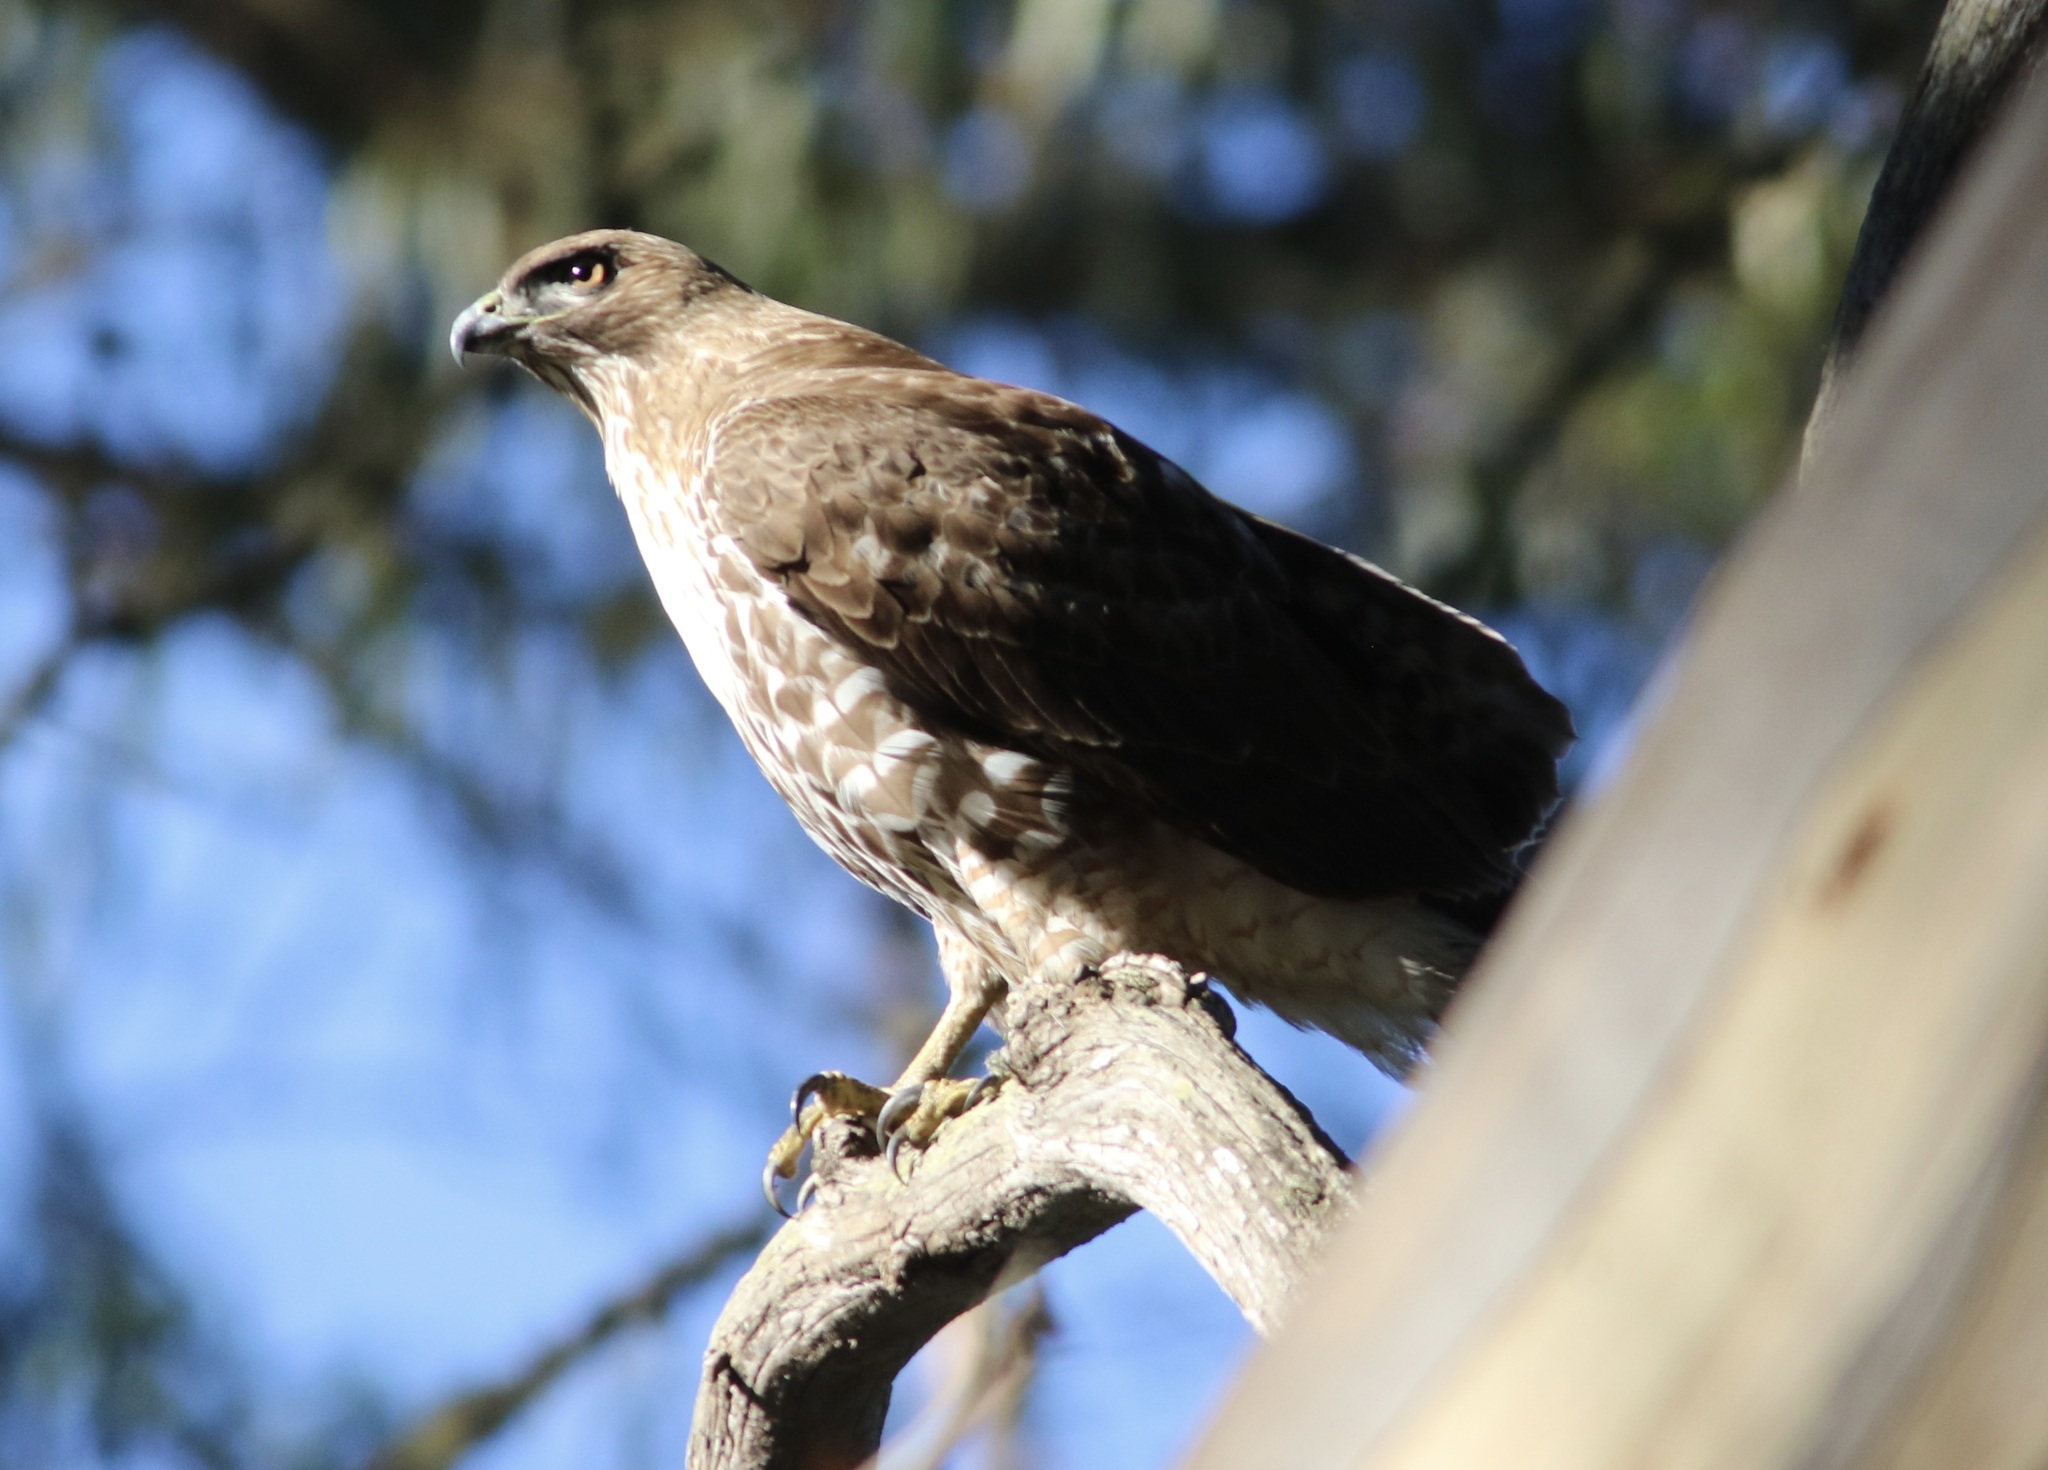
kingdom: Animalia
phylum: Chordata
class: Aves
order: Accipitriformes
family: Accipitridae
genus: Buteo
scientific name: Buteo jamaicensis
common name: Red-tailed hawk
